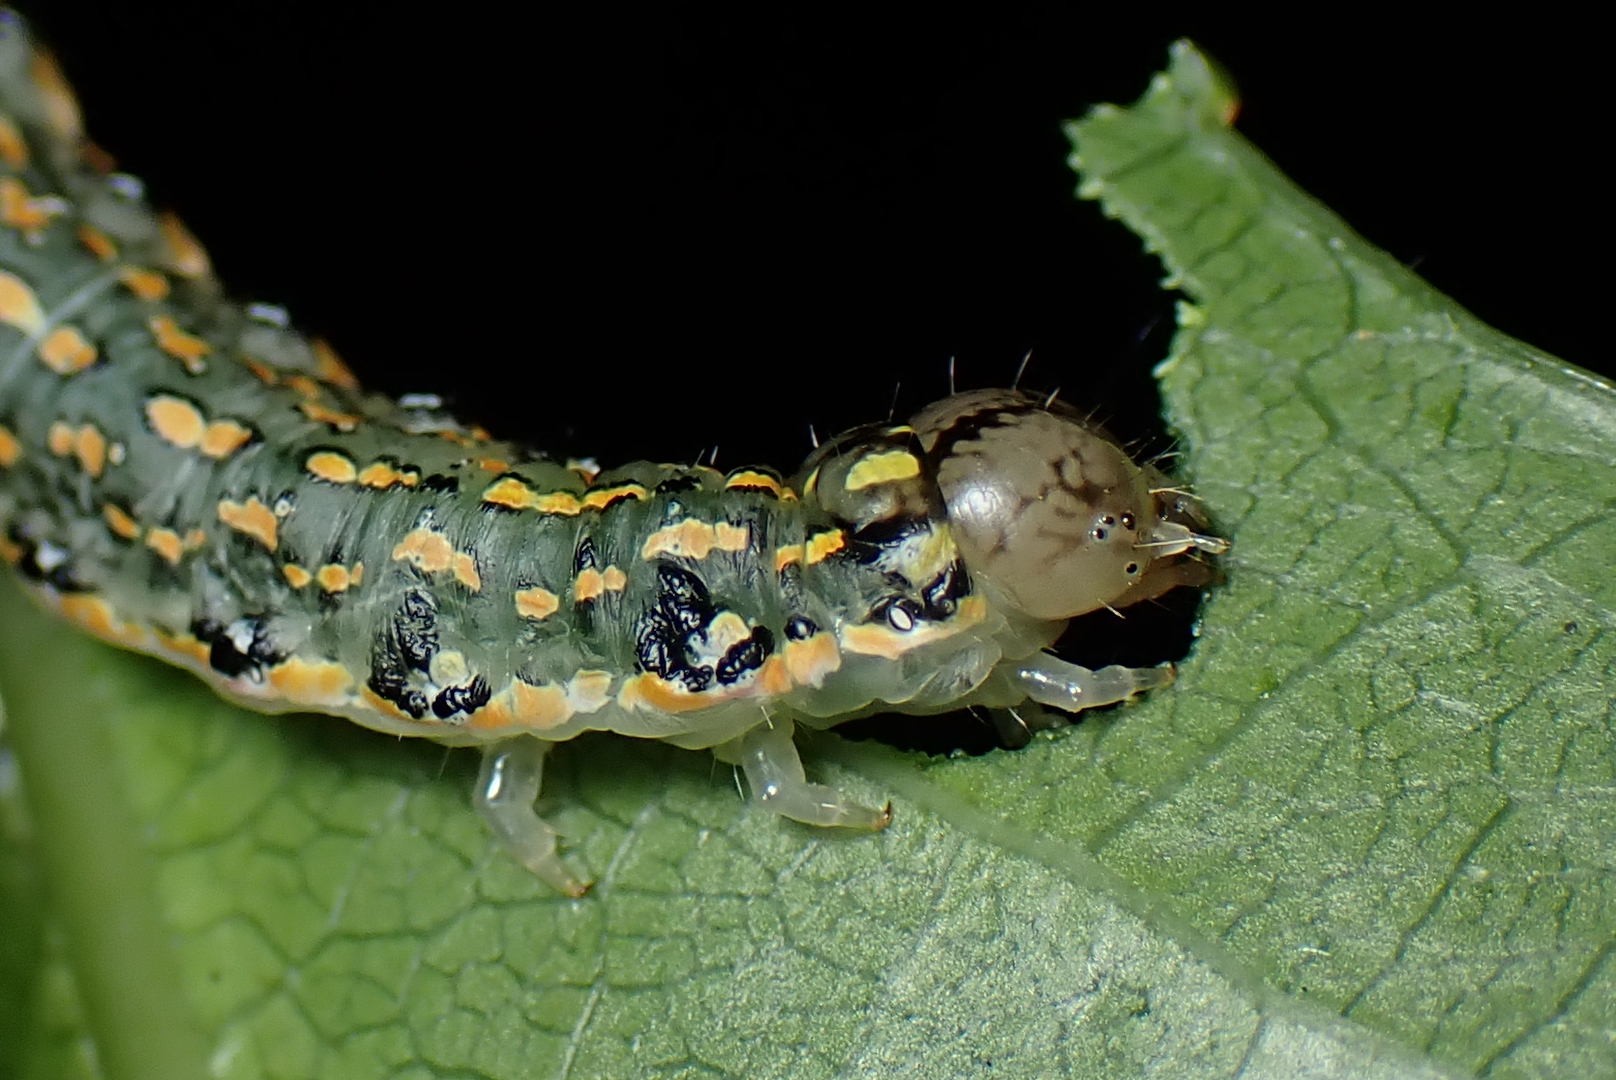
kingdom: Animalia
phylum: Arthropoda
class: Insecta
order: Lepidoptera
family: Noctuidae
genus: Austramathes
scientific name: Austramathes purpurea
